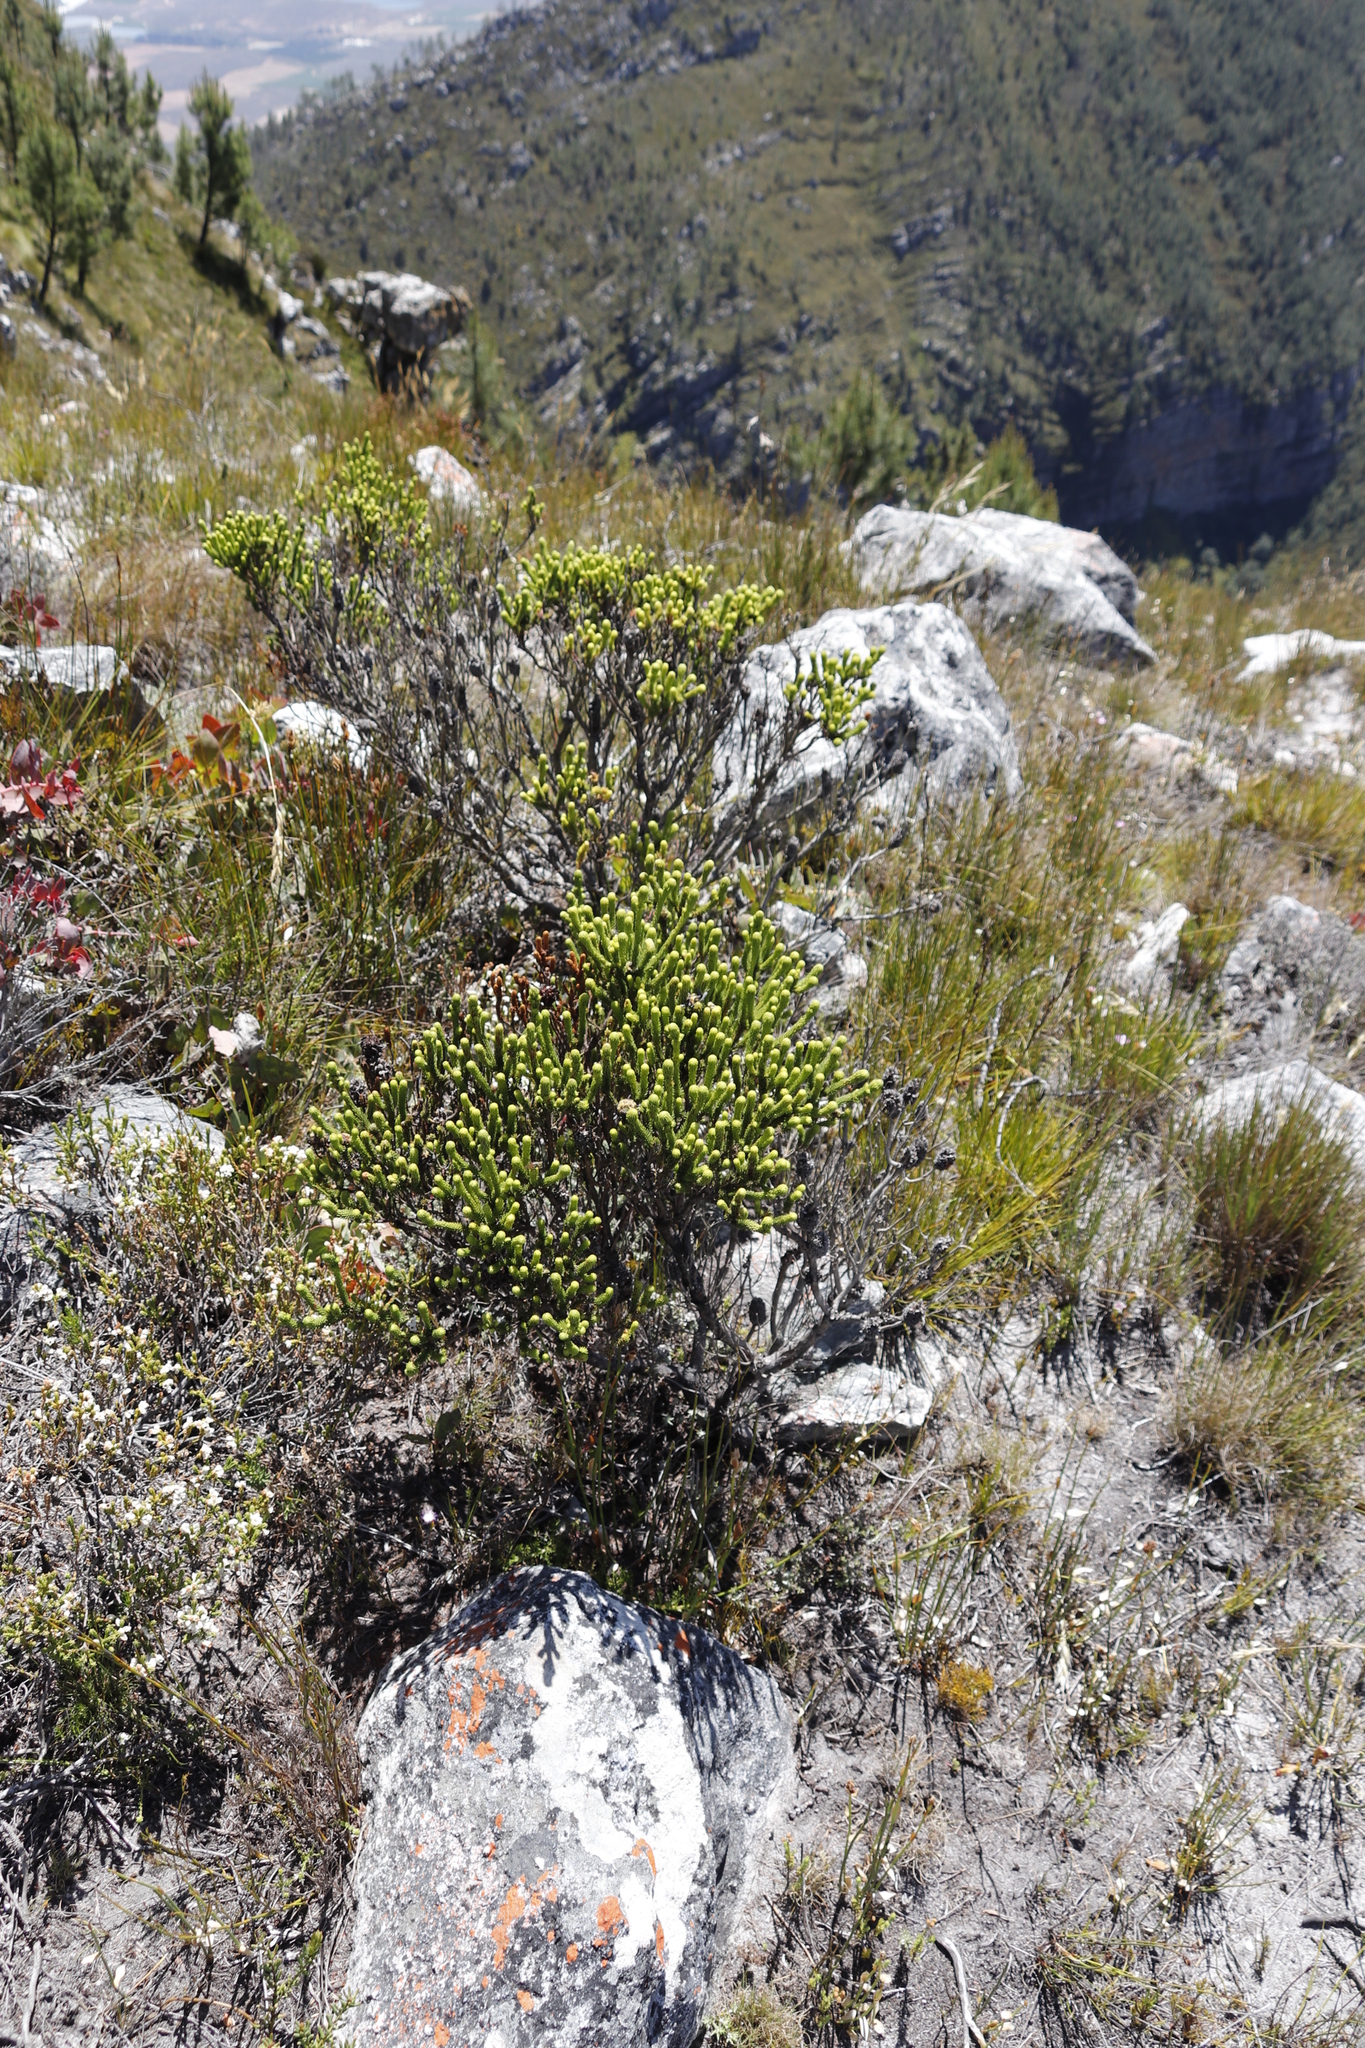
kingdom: Plantae
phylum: Tracheophyta
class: Magnoliopsida
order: Ericales
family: Ericaceae
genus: Erica
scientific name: Erica sessiliflora
